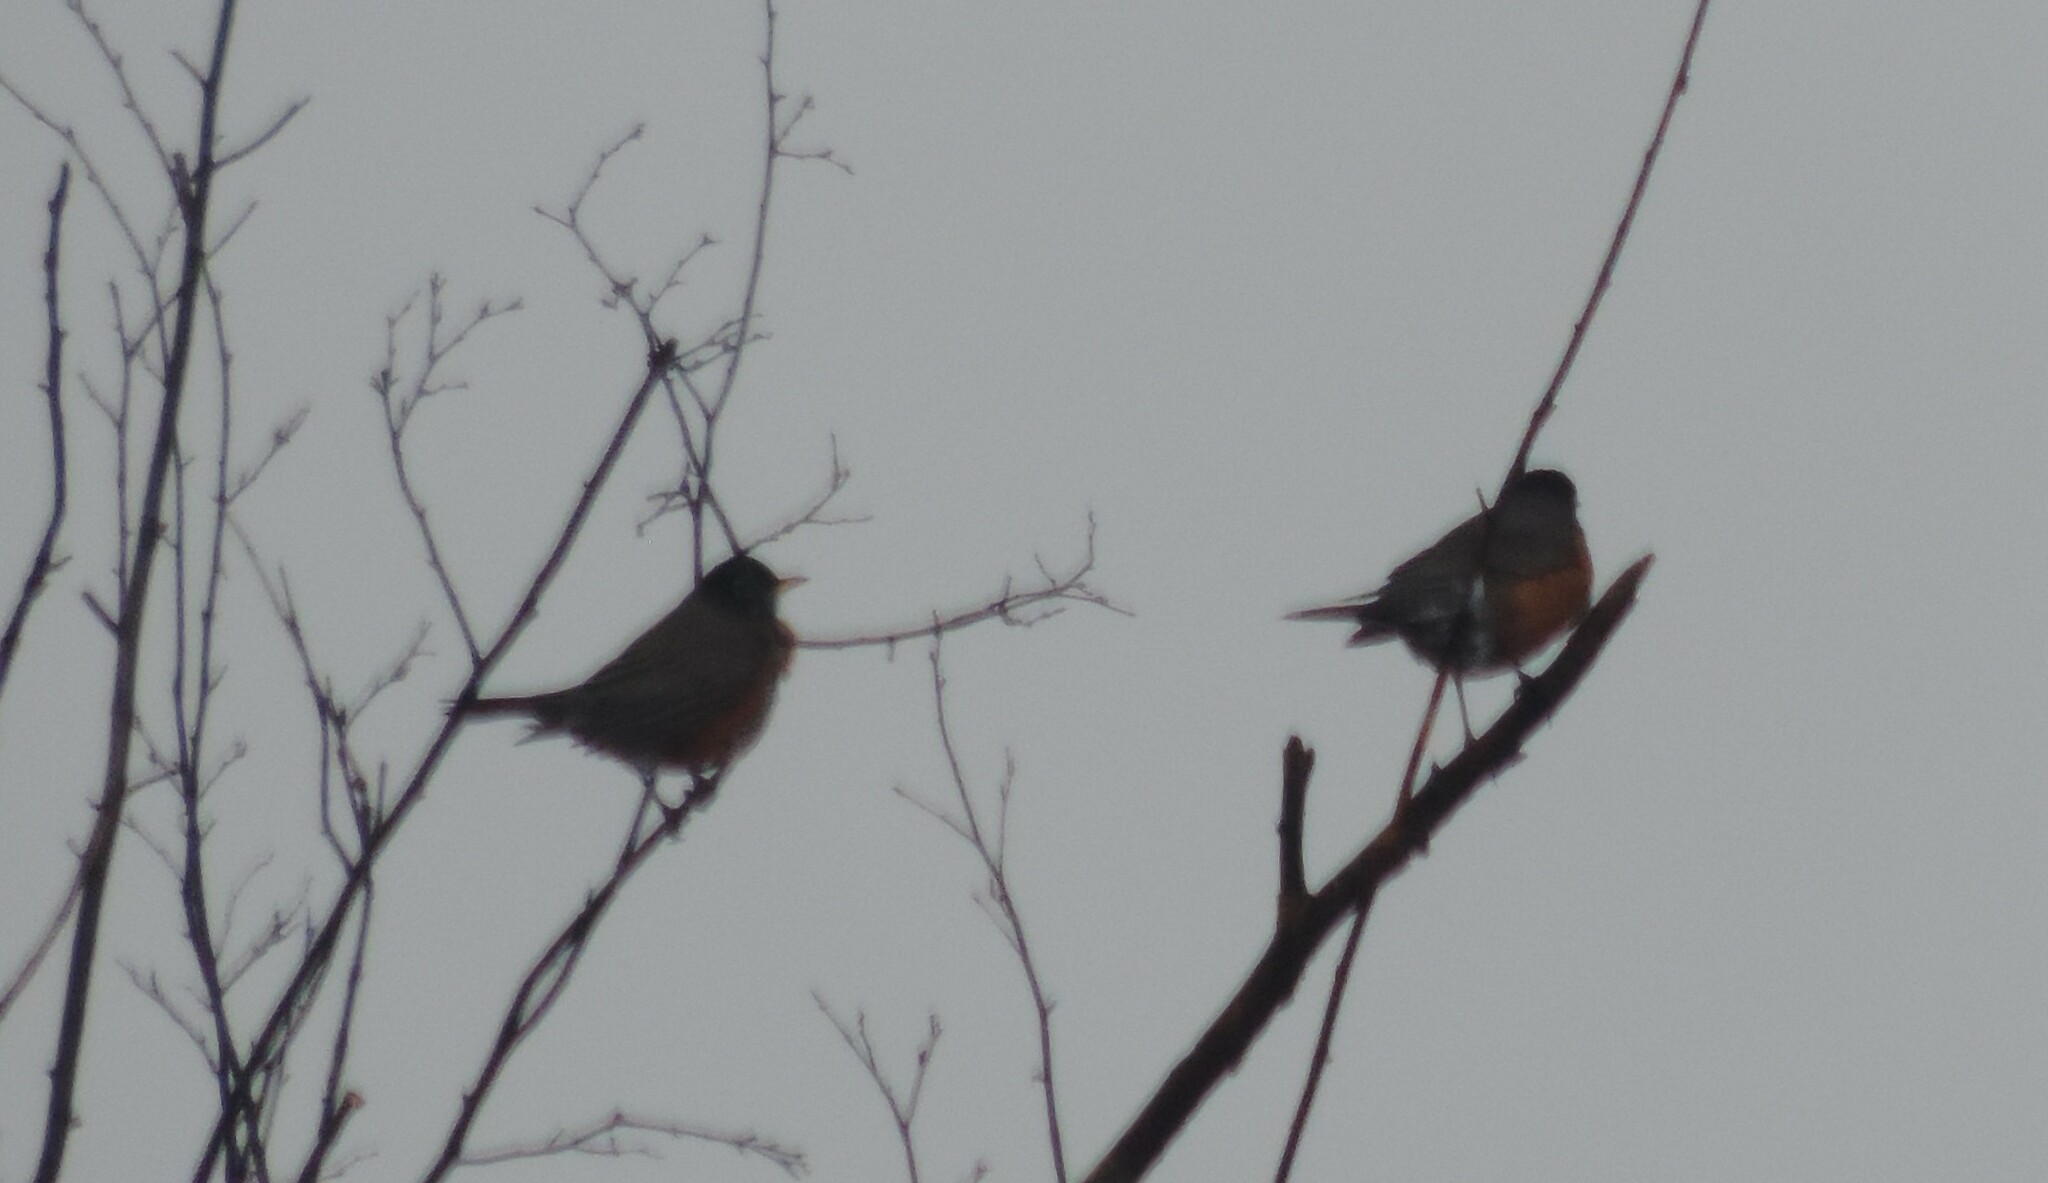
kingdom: Animalia
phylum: Chordata
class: Aves
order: Passeriformes
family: Turdidae
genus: Turdus
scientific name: Turdus migratorius
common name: American robin
